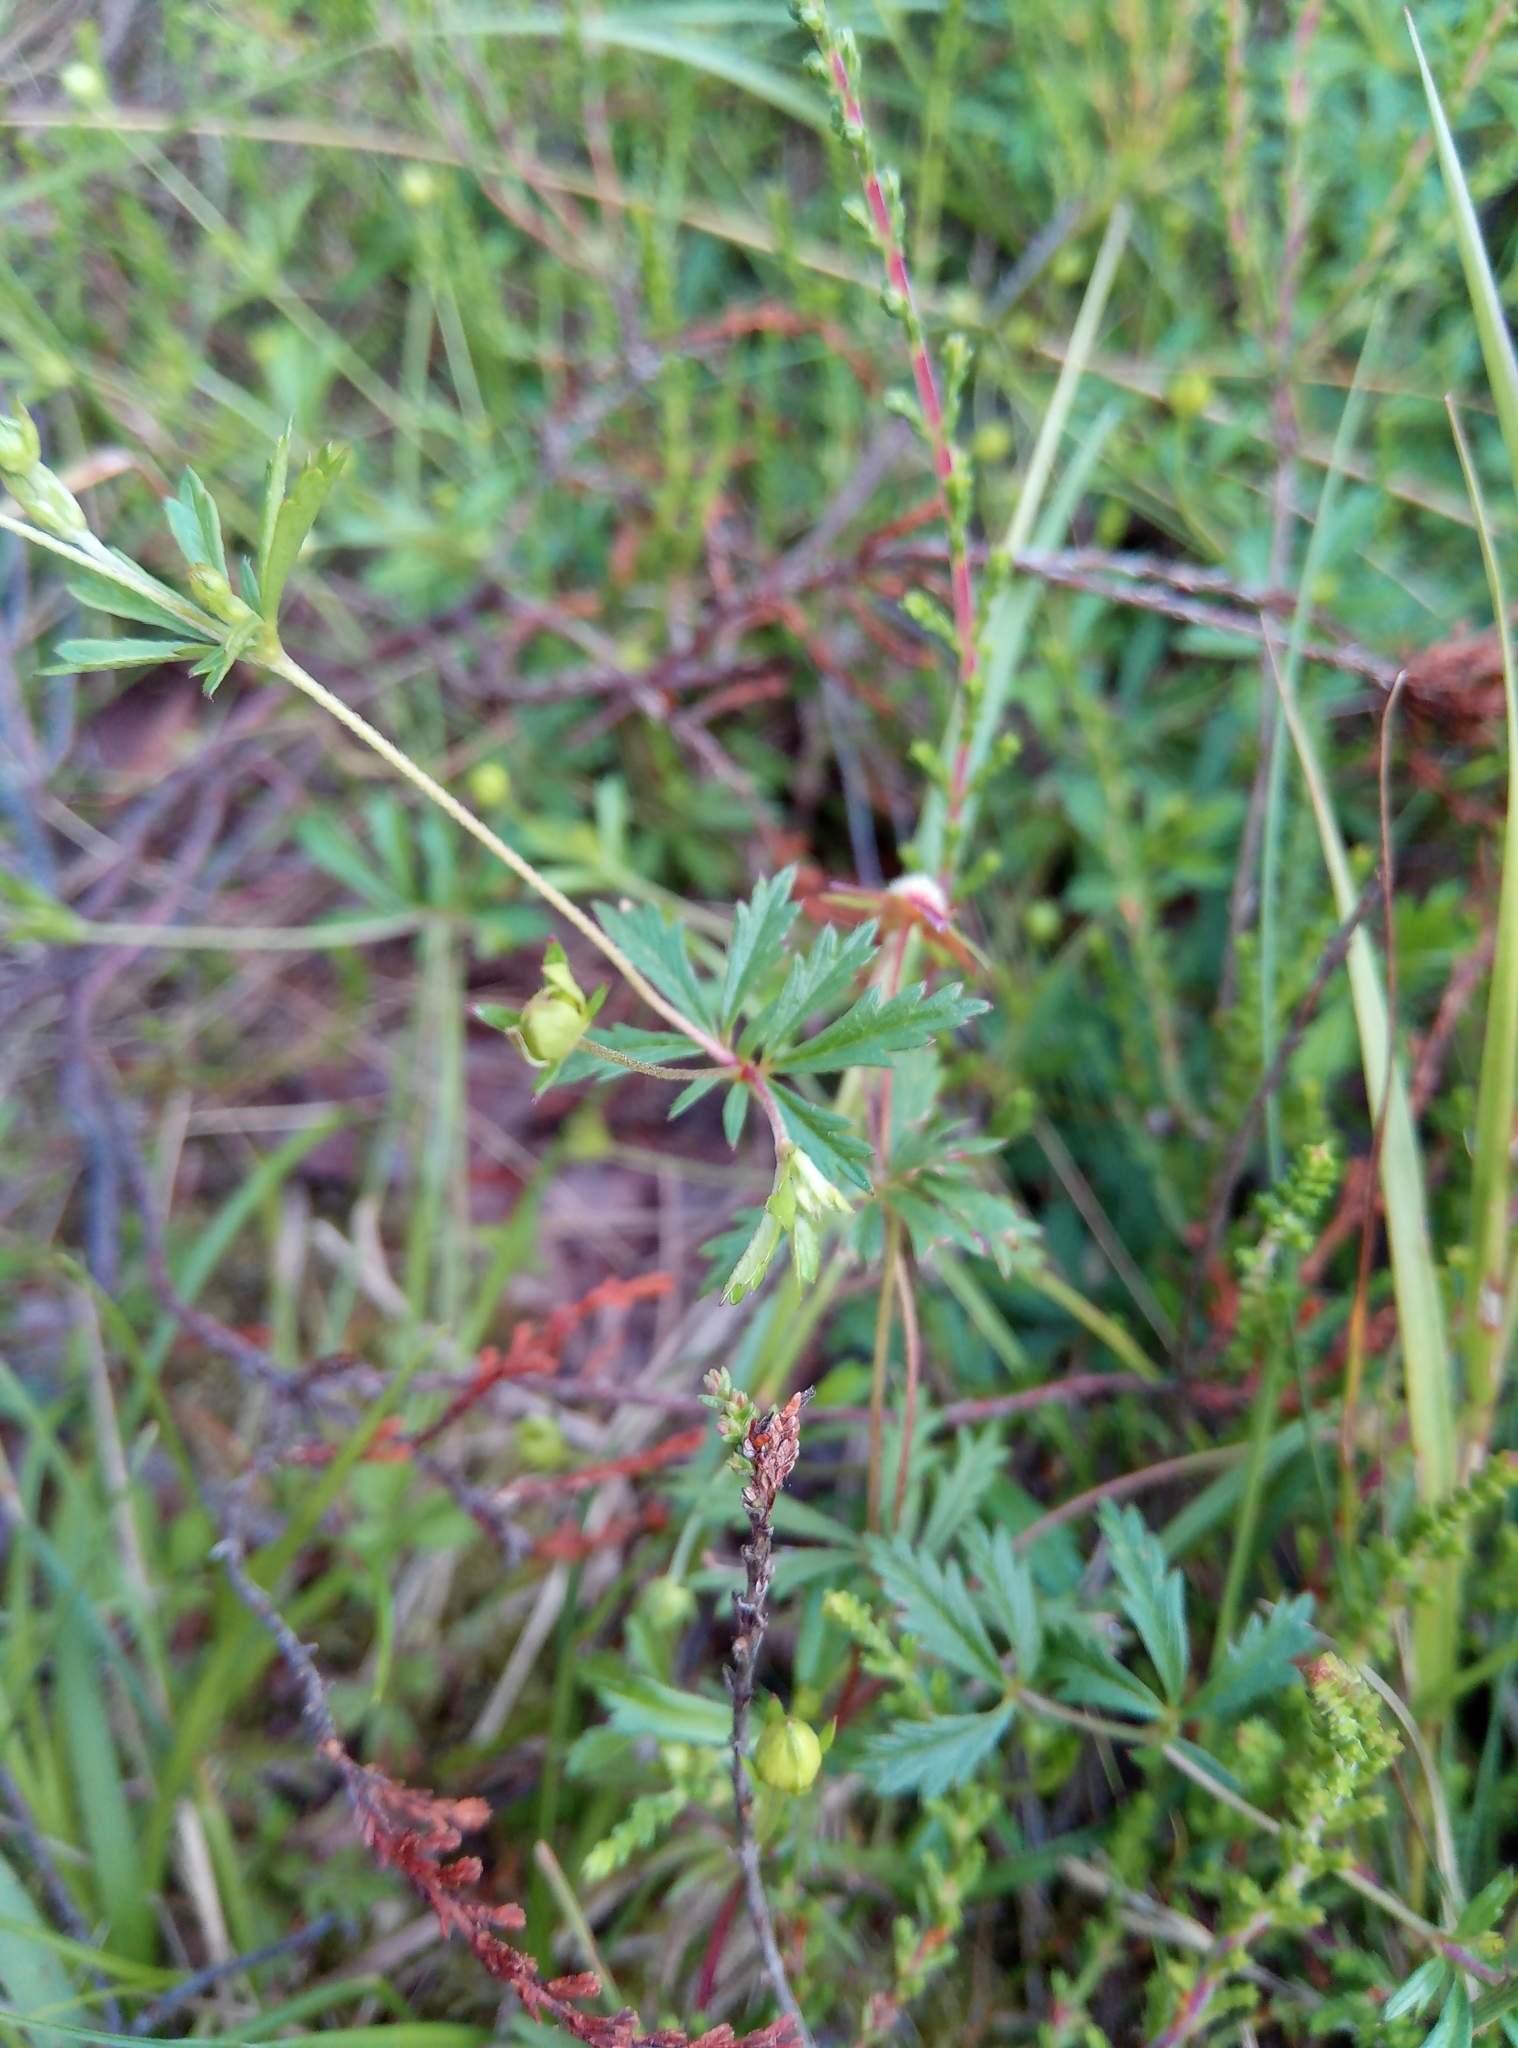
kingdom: Plantae
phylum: Tracheophyta
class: Magnoliopsida
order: Rosales
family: Rosaceae
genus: Potentilla
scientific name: Potentilla erecta
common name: Tormentil
